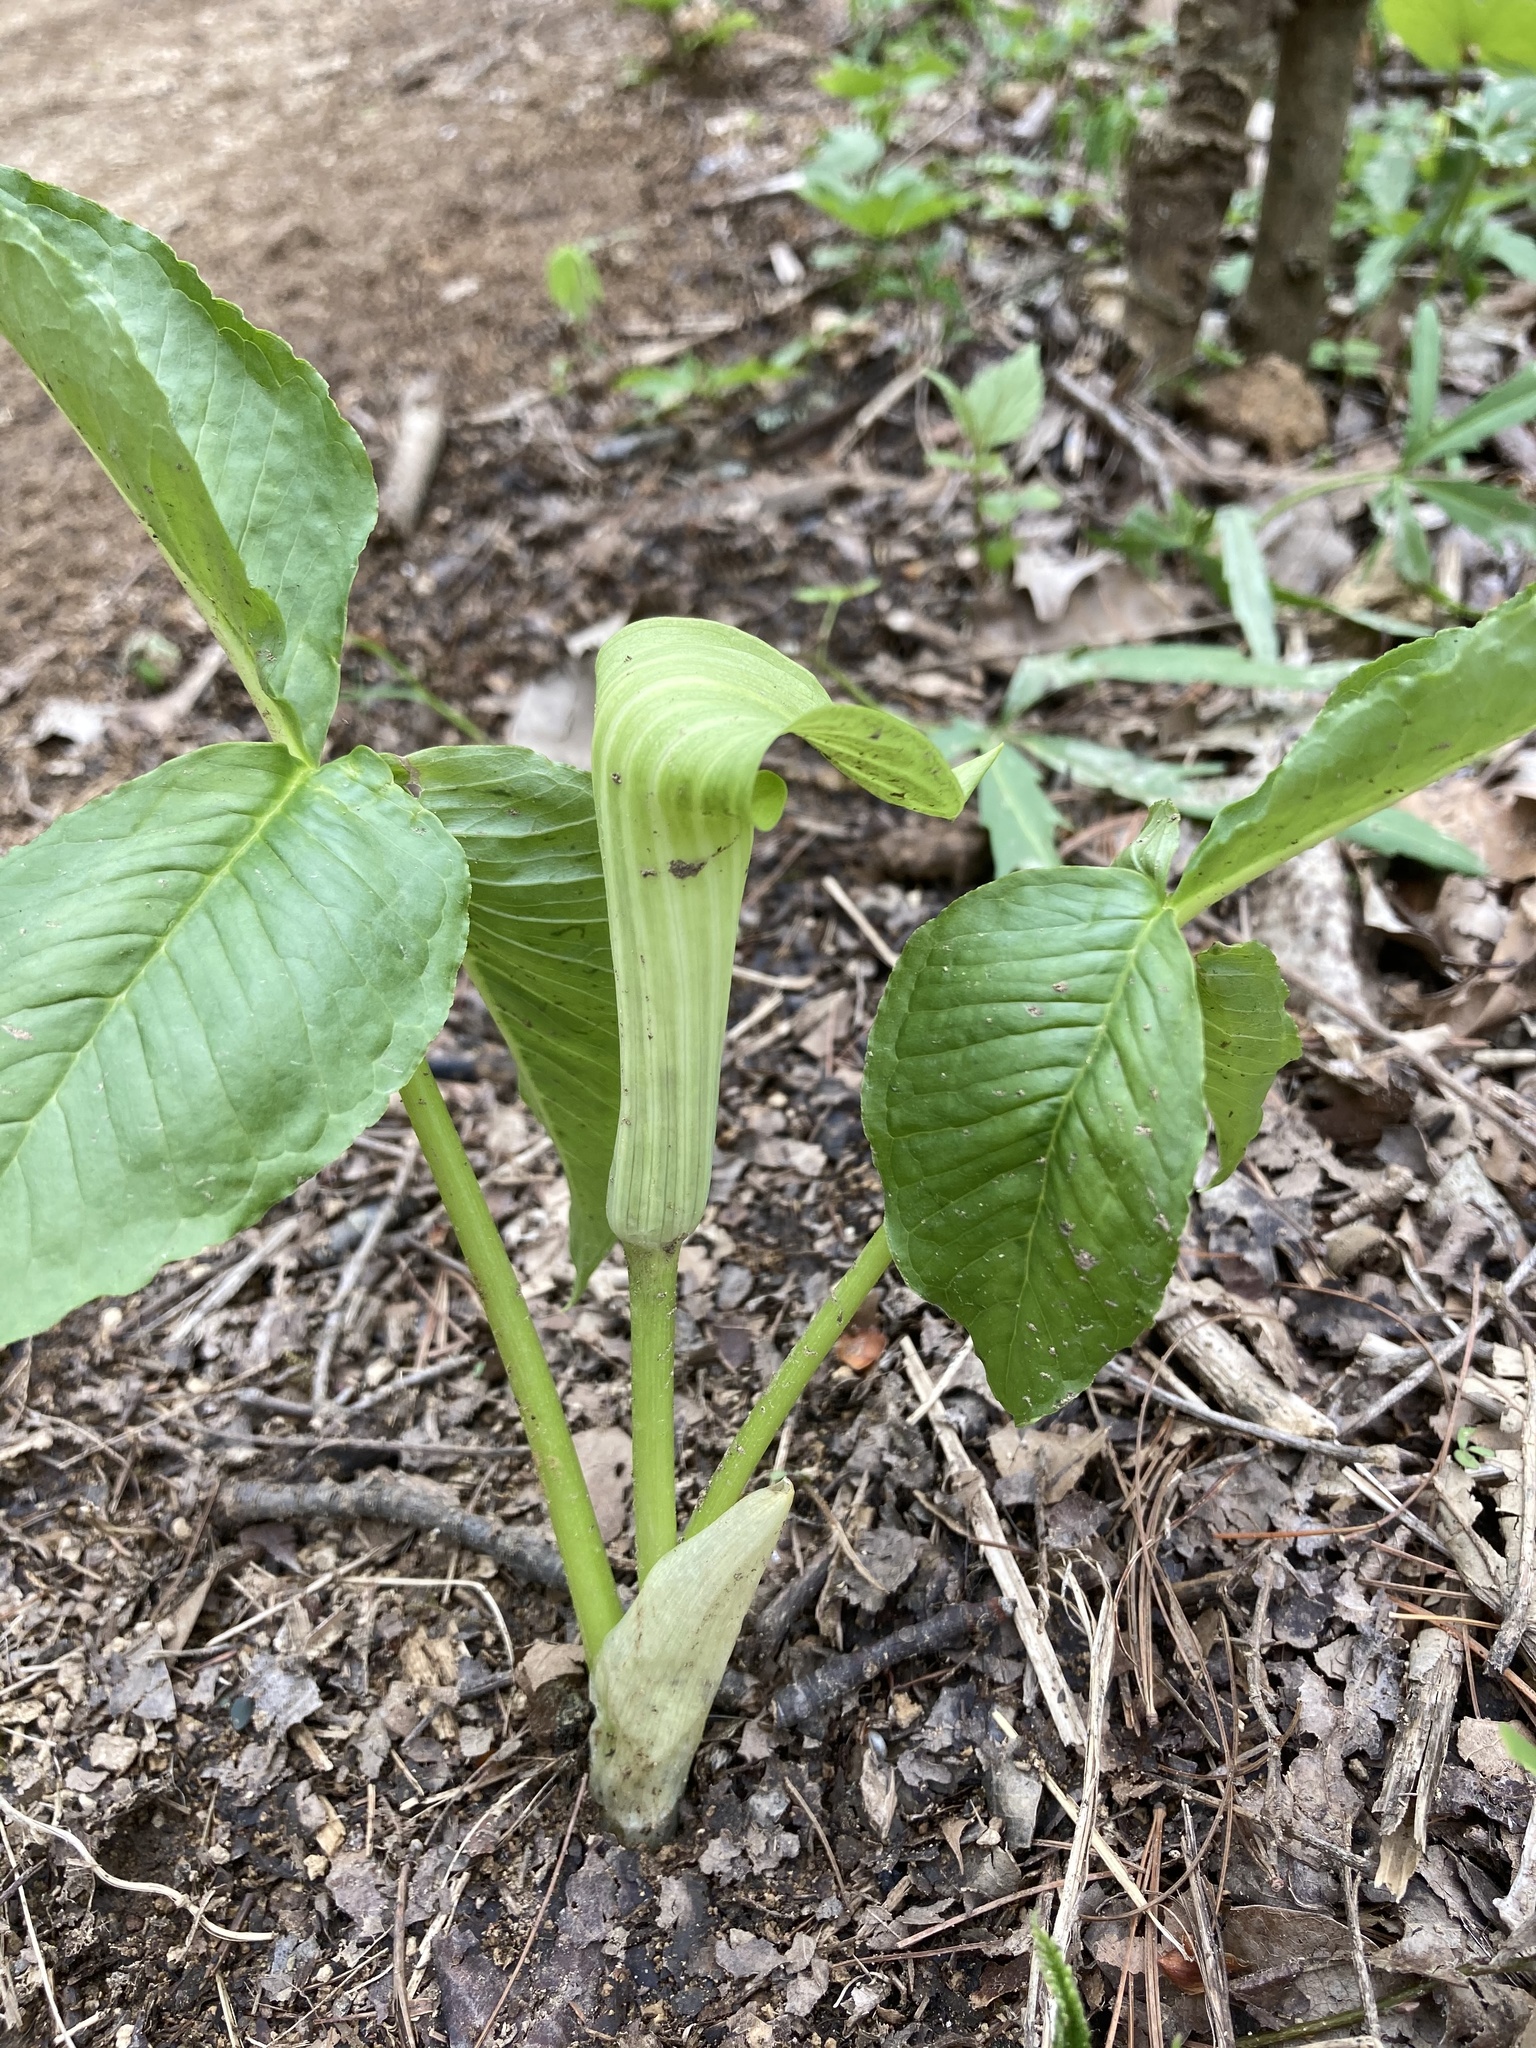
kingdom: Plantae
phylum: Tracheophyta
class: Liliopsida
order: Alismatales
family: Araceae
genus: Arisaema
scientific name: Arisaema triphyllum
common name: Jack-in-the-pulpit
